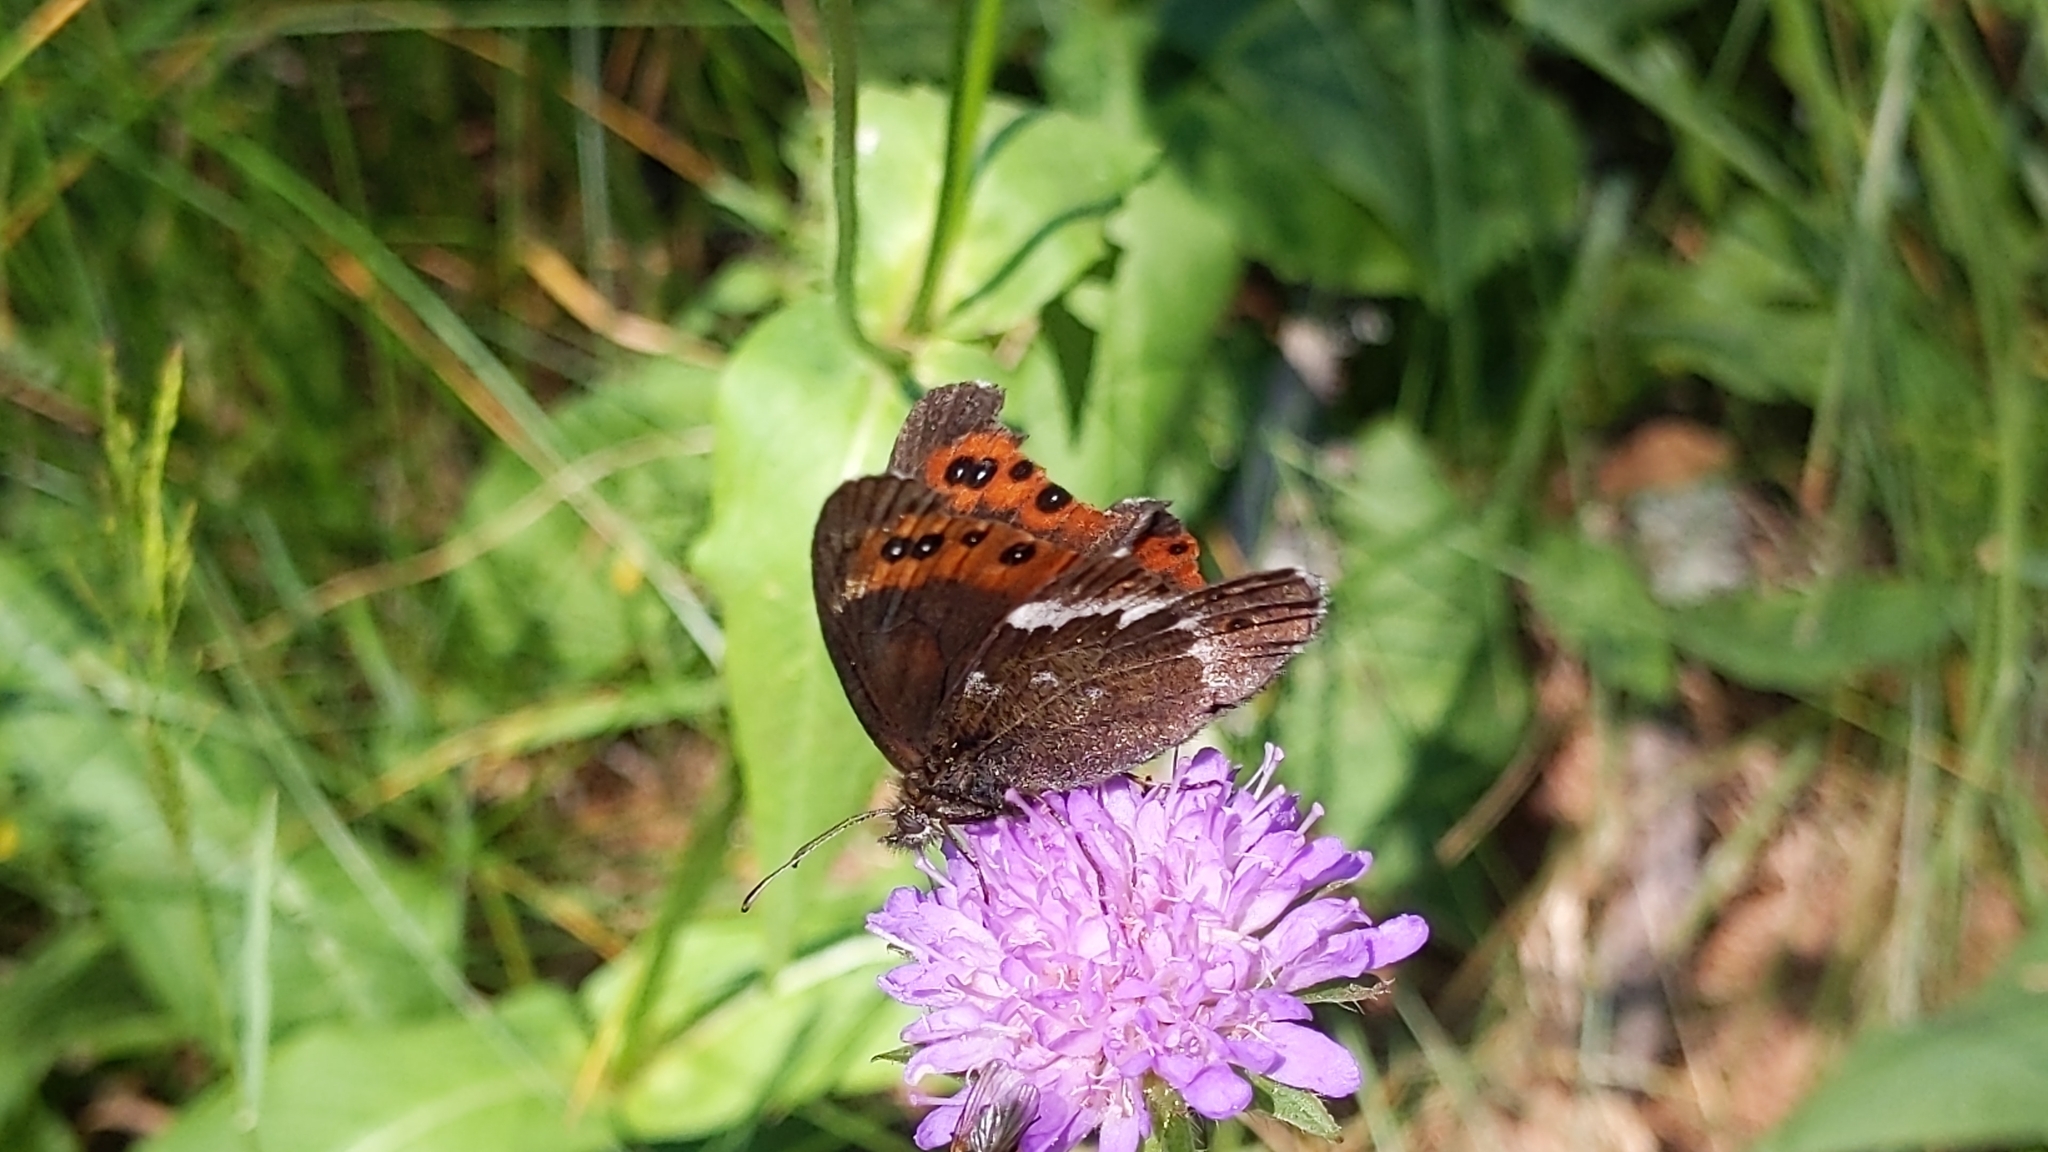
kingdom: Animalia
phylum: Arthropoda
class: Insecta
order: Lepidoptera
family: Nymphalidae
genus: Erebia
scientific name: Erebia ligea
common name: Arran brown
